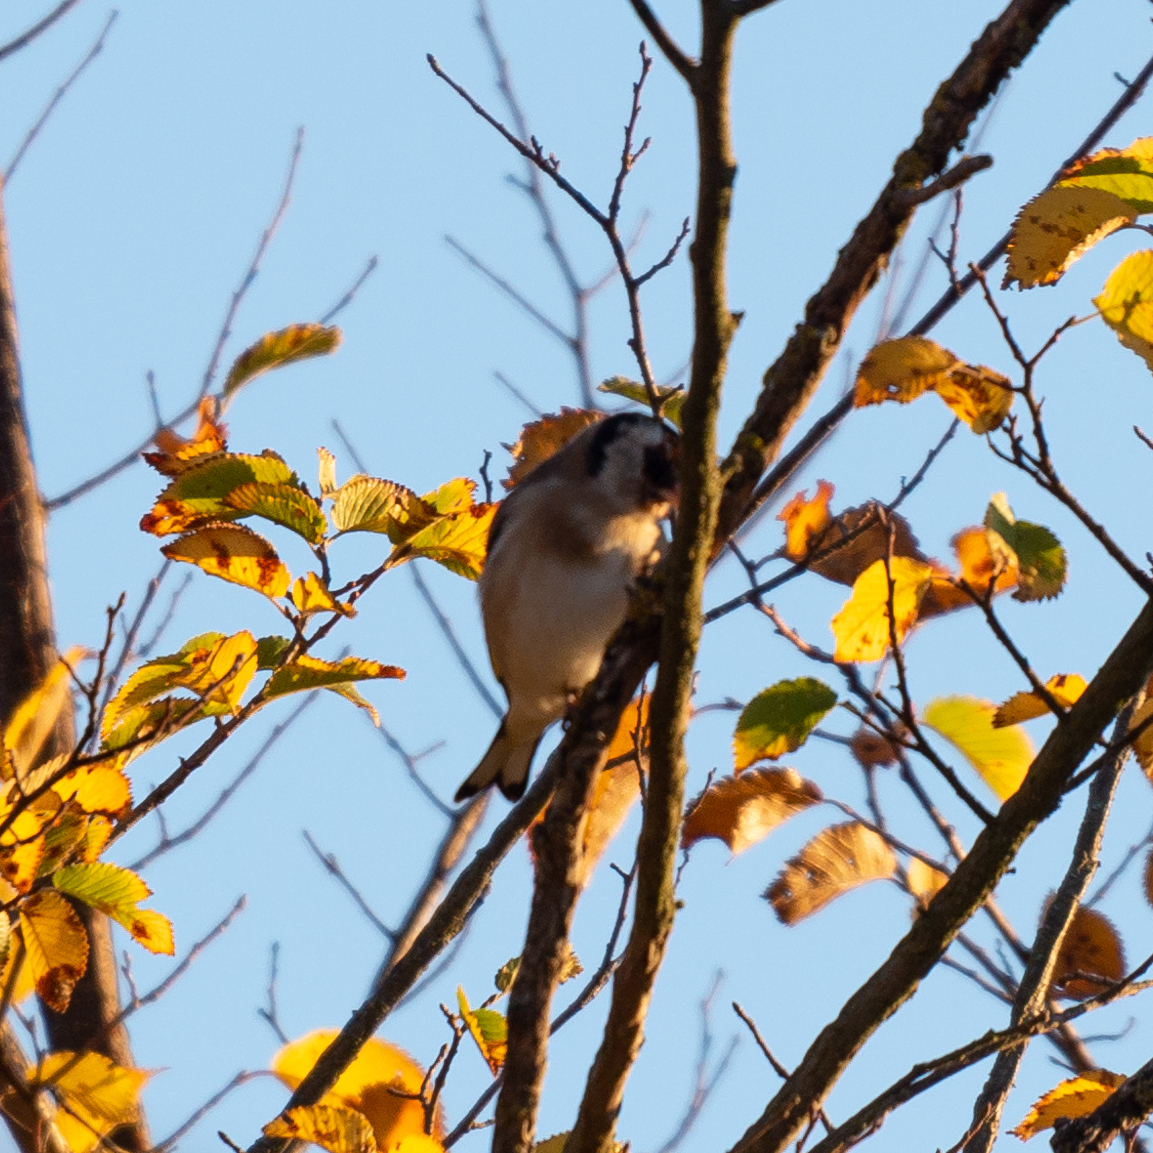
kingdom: Animalia
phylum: Chordata
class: Aves
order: Passeriformes
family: Fringillidae
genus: Carduelis
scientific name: Carduelis carduelis
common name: European goldfinch
